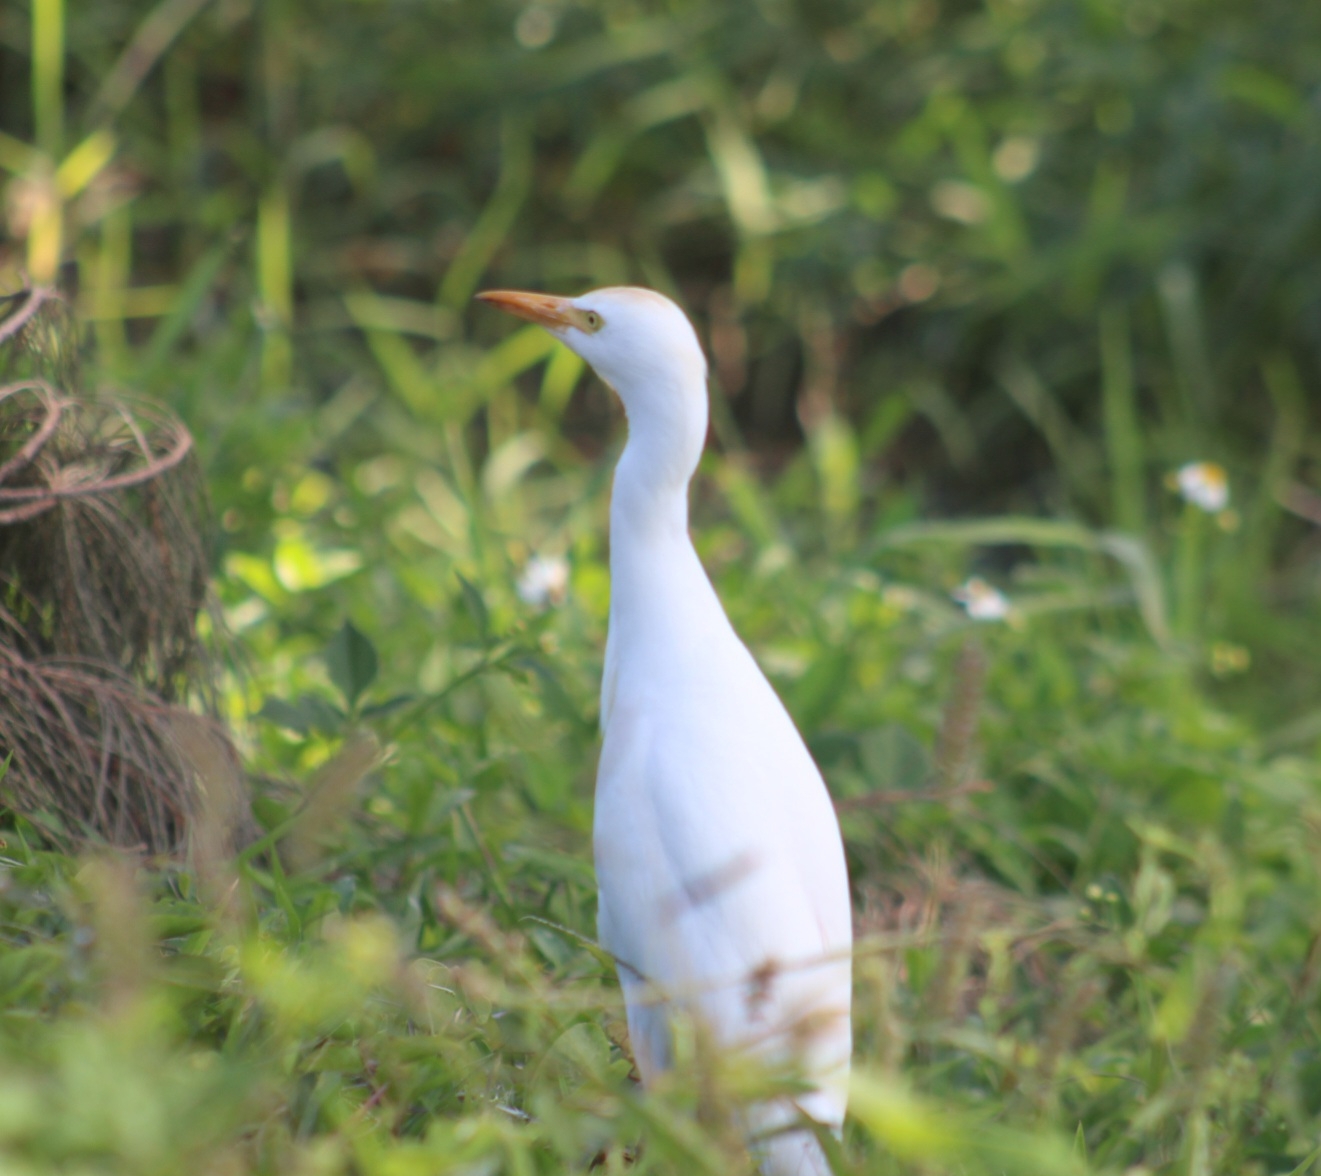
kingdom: Animalia
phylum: Chordata
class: Aves
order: Pelecaniformes
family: Ardeidae
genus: Bubulcus
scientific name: Bubulcus ibis
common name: Cattle egret
